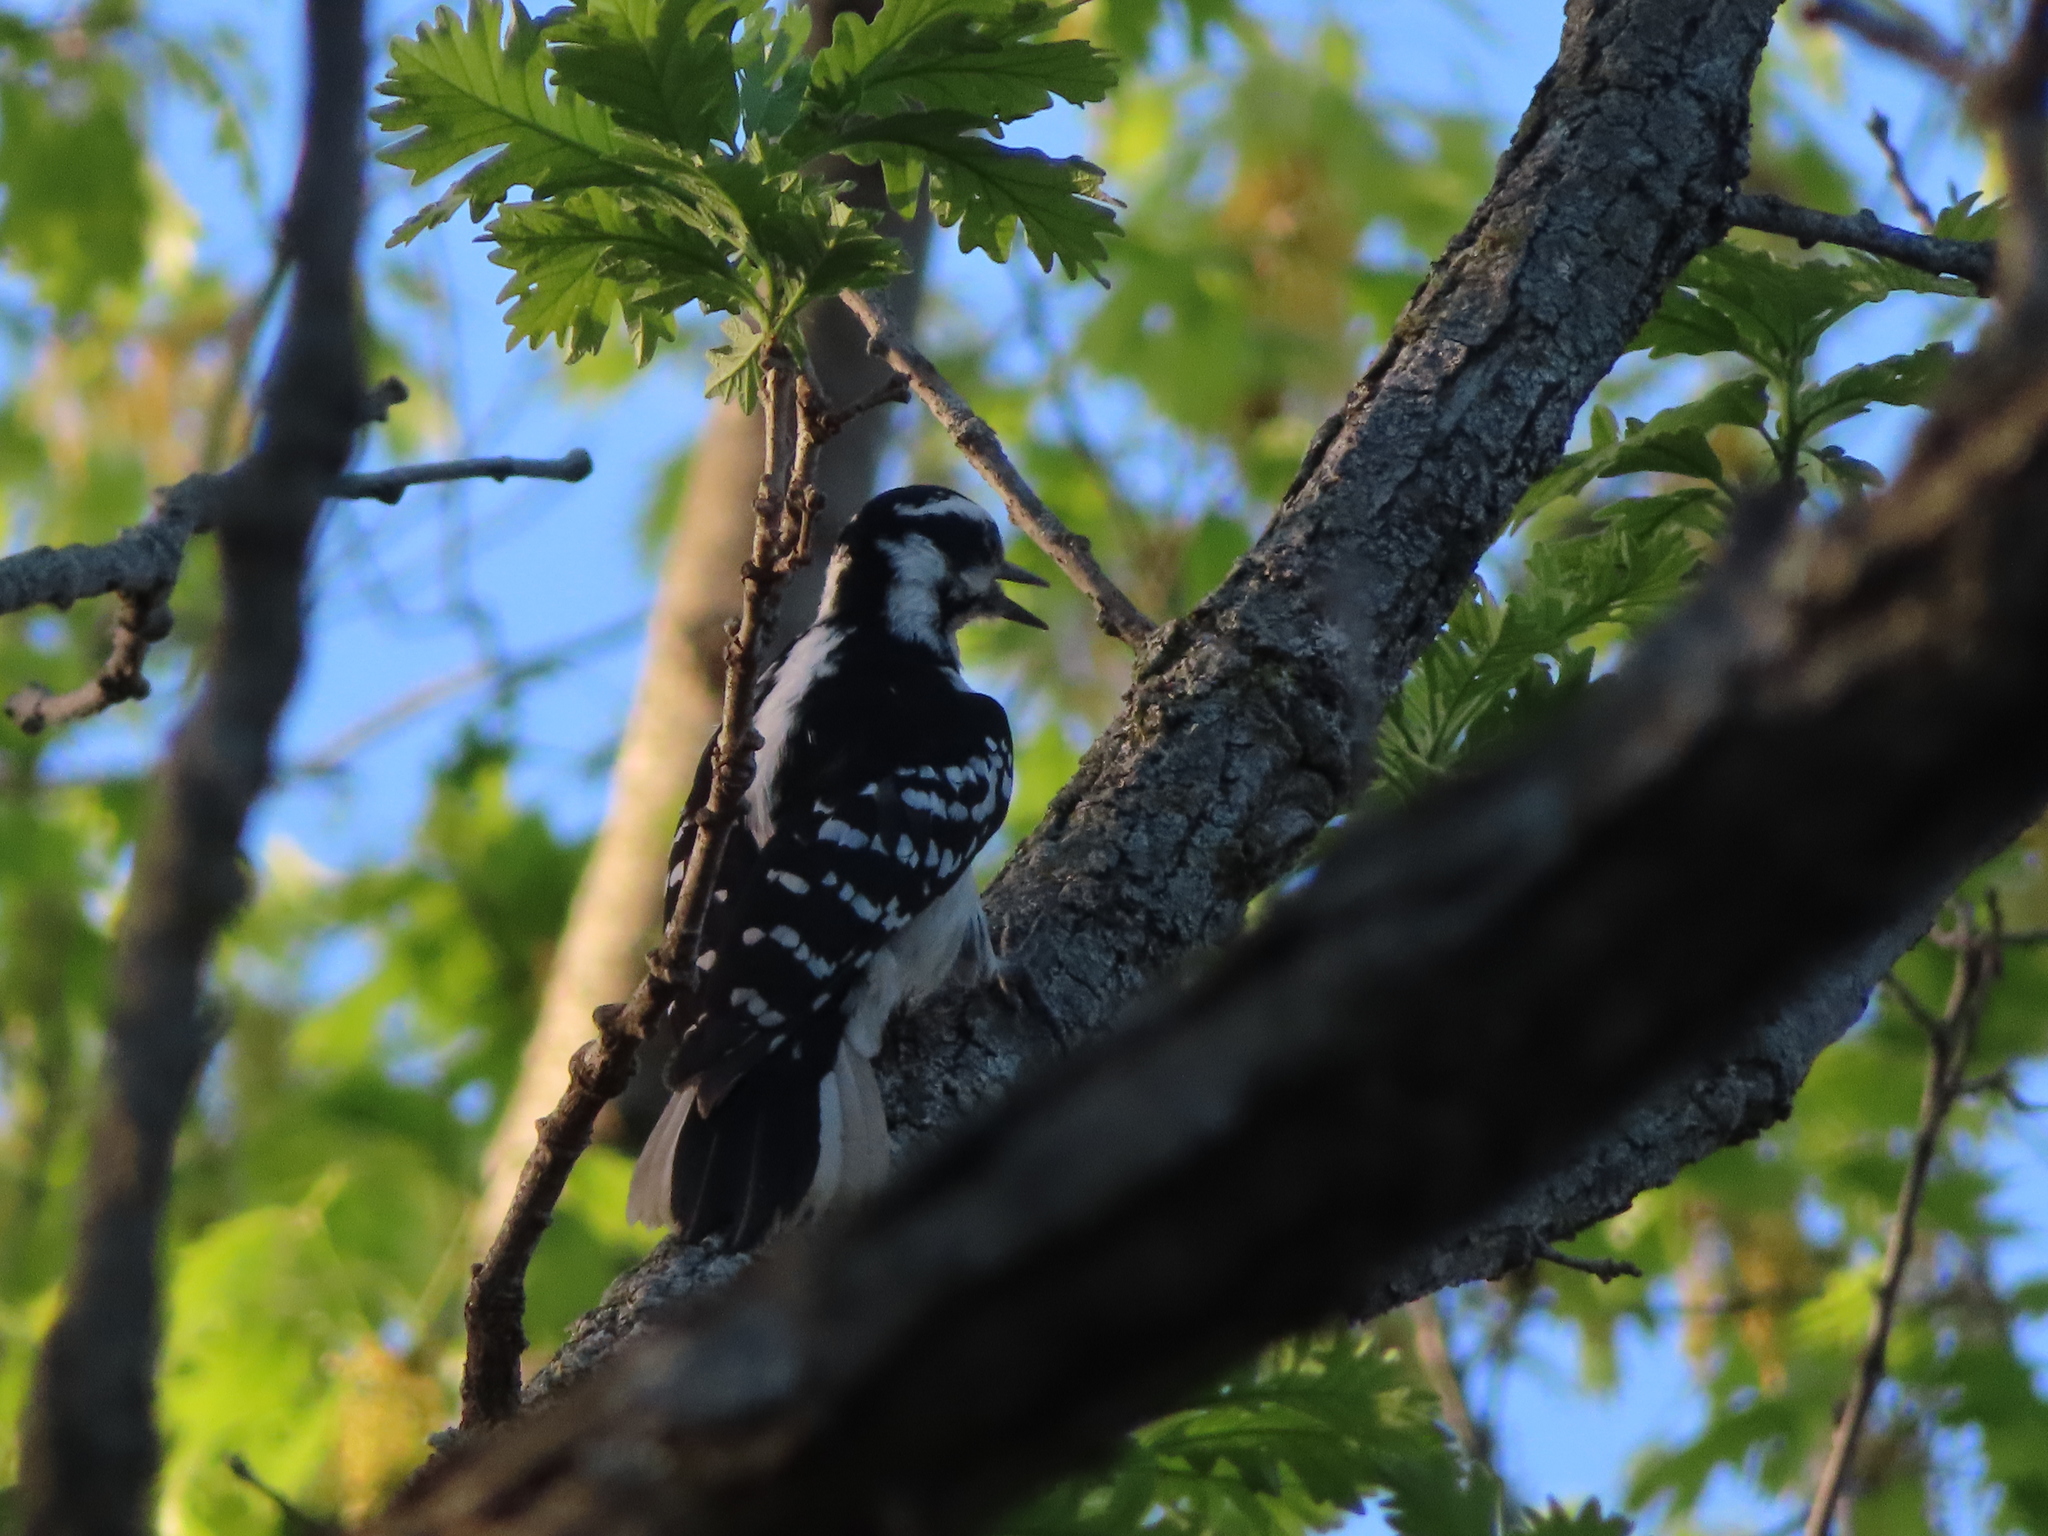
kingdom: Animalia
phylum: Chordata
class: Aves
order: Piciformes
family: Picidae
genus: Leuconotopicus
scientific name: Leuconotopicus villosus
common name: Hairy woodpecker
